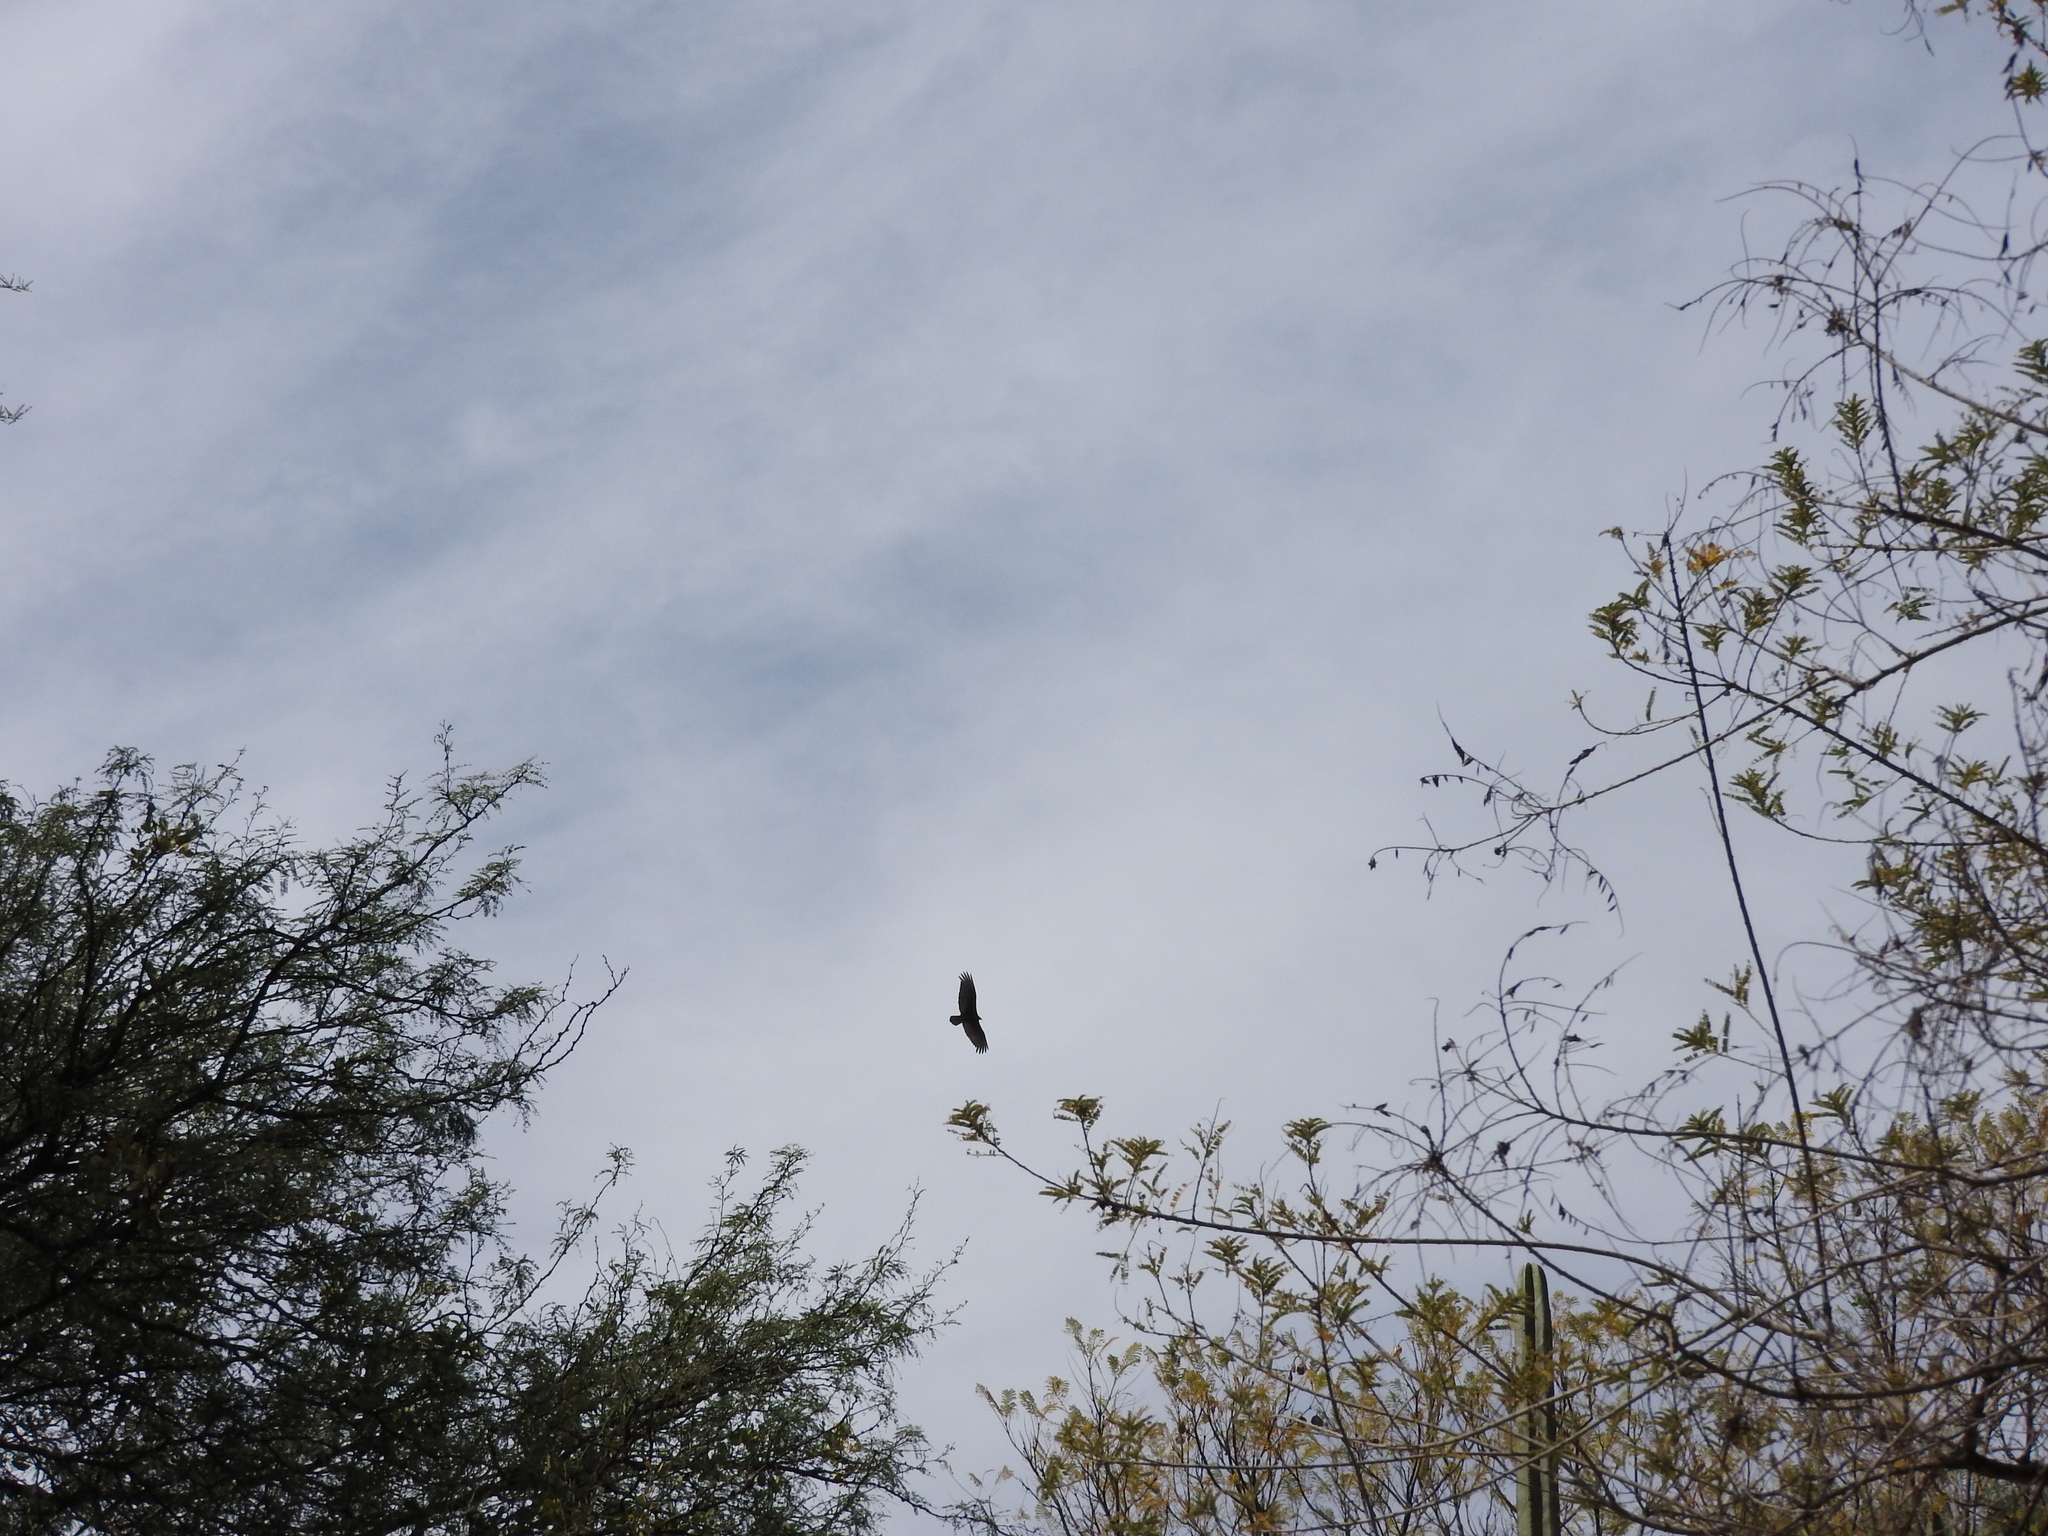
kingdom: Animalia
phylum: Chordata
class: Aves
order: Accipitriformes
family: Cathartidae
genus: Cathartes
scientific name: Cathartes aura
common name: Turkey vulture
